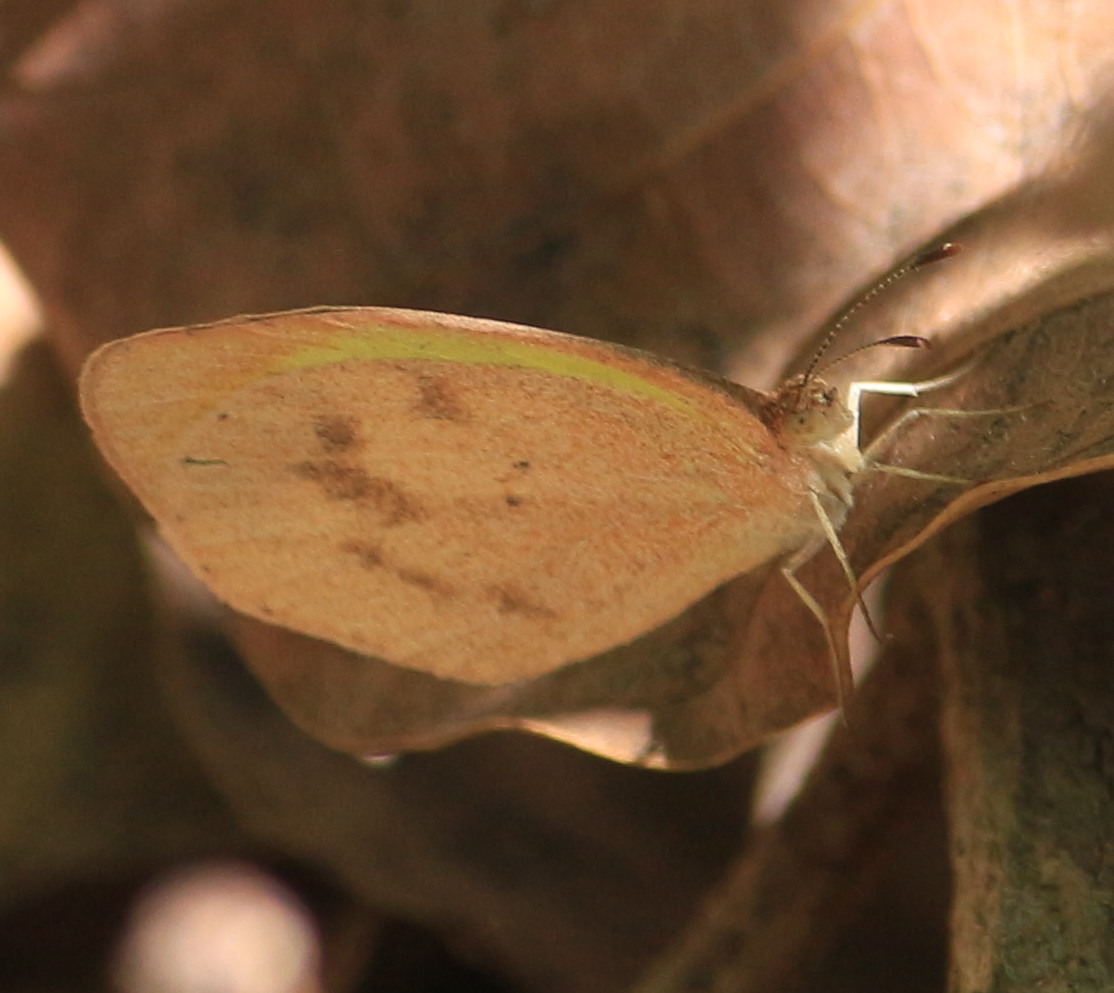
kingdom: Animalia
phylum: Arthropoda
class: Insecta
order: Lepidoptera
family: Pieridae
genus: Eurema
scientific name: Eurema daira
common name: Barred sulphur
